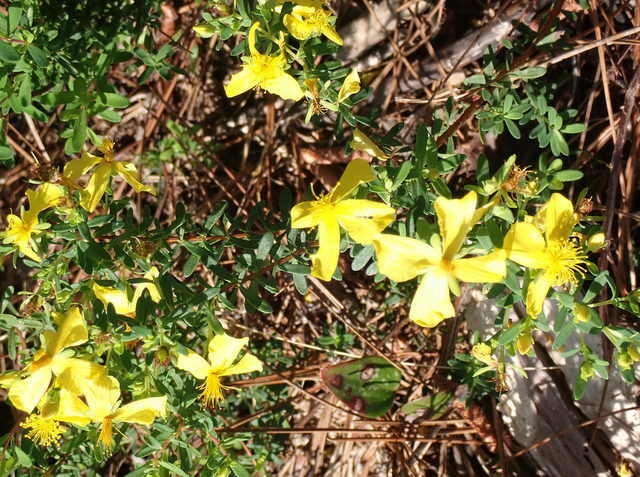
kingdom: Plantae
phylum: Tracheophyta
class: Magnoliopsida
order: Malpighiales
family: Hypericaceae
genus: Hypericum
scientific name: Hypericum microsepalum
